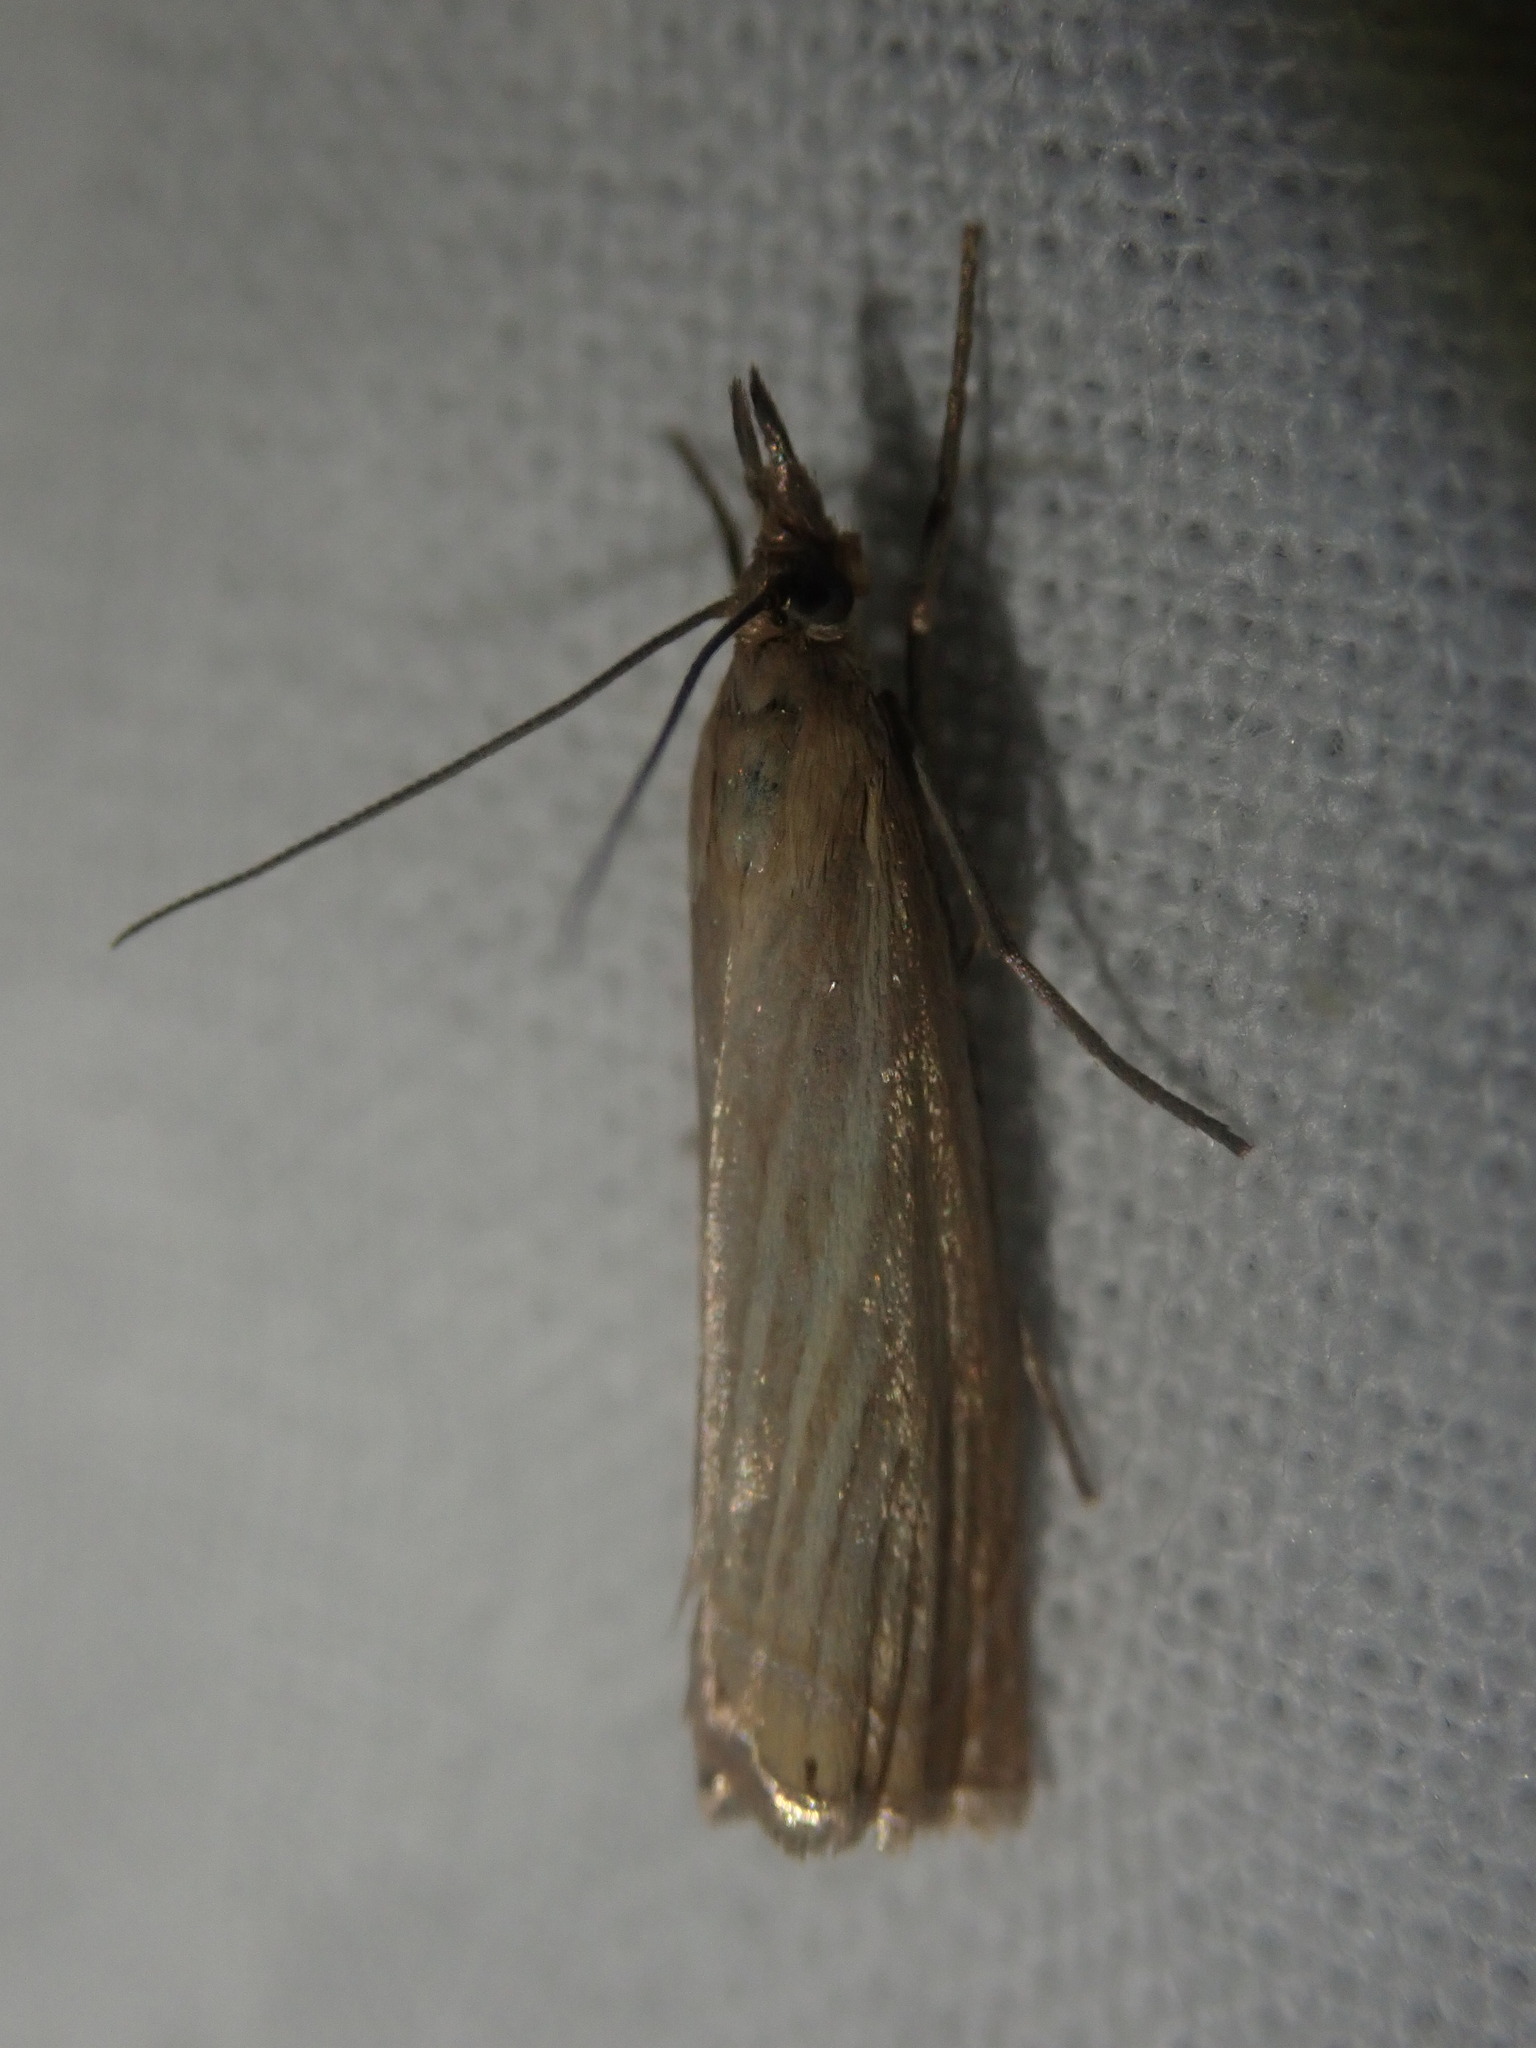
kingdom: Animalia
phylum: Arthropoda
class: Insecta
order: Lepidoptera
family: Crambidae
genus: Chrysoteuchia
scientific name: Chrysoteuchia culmella
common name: Garden grass-veneer
